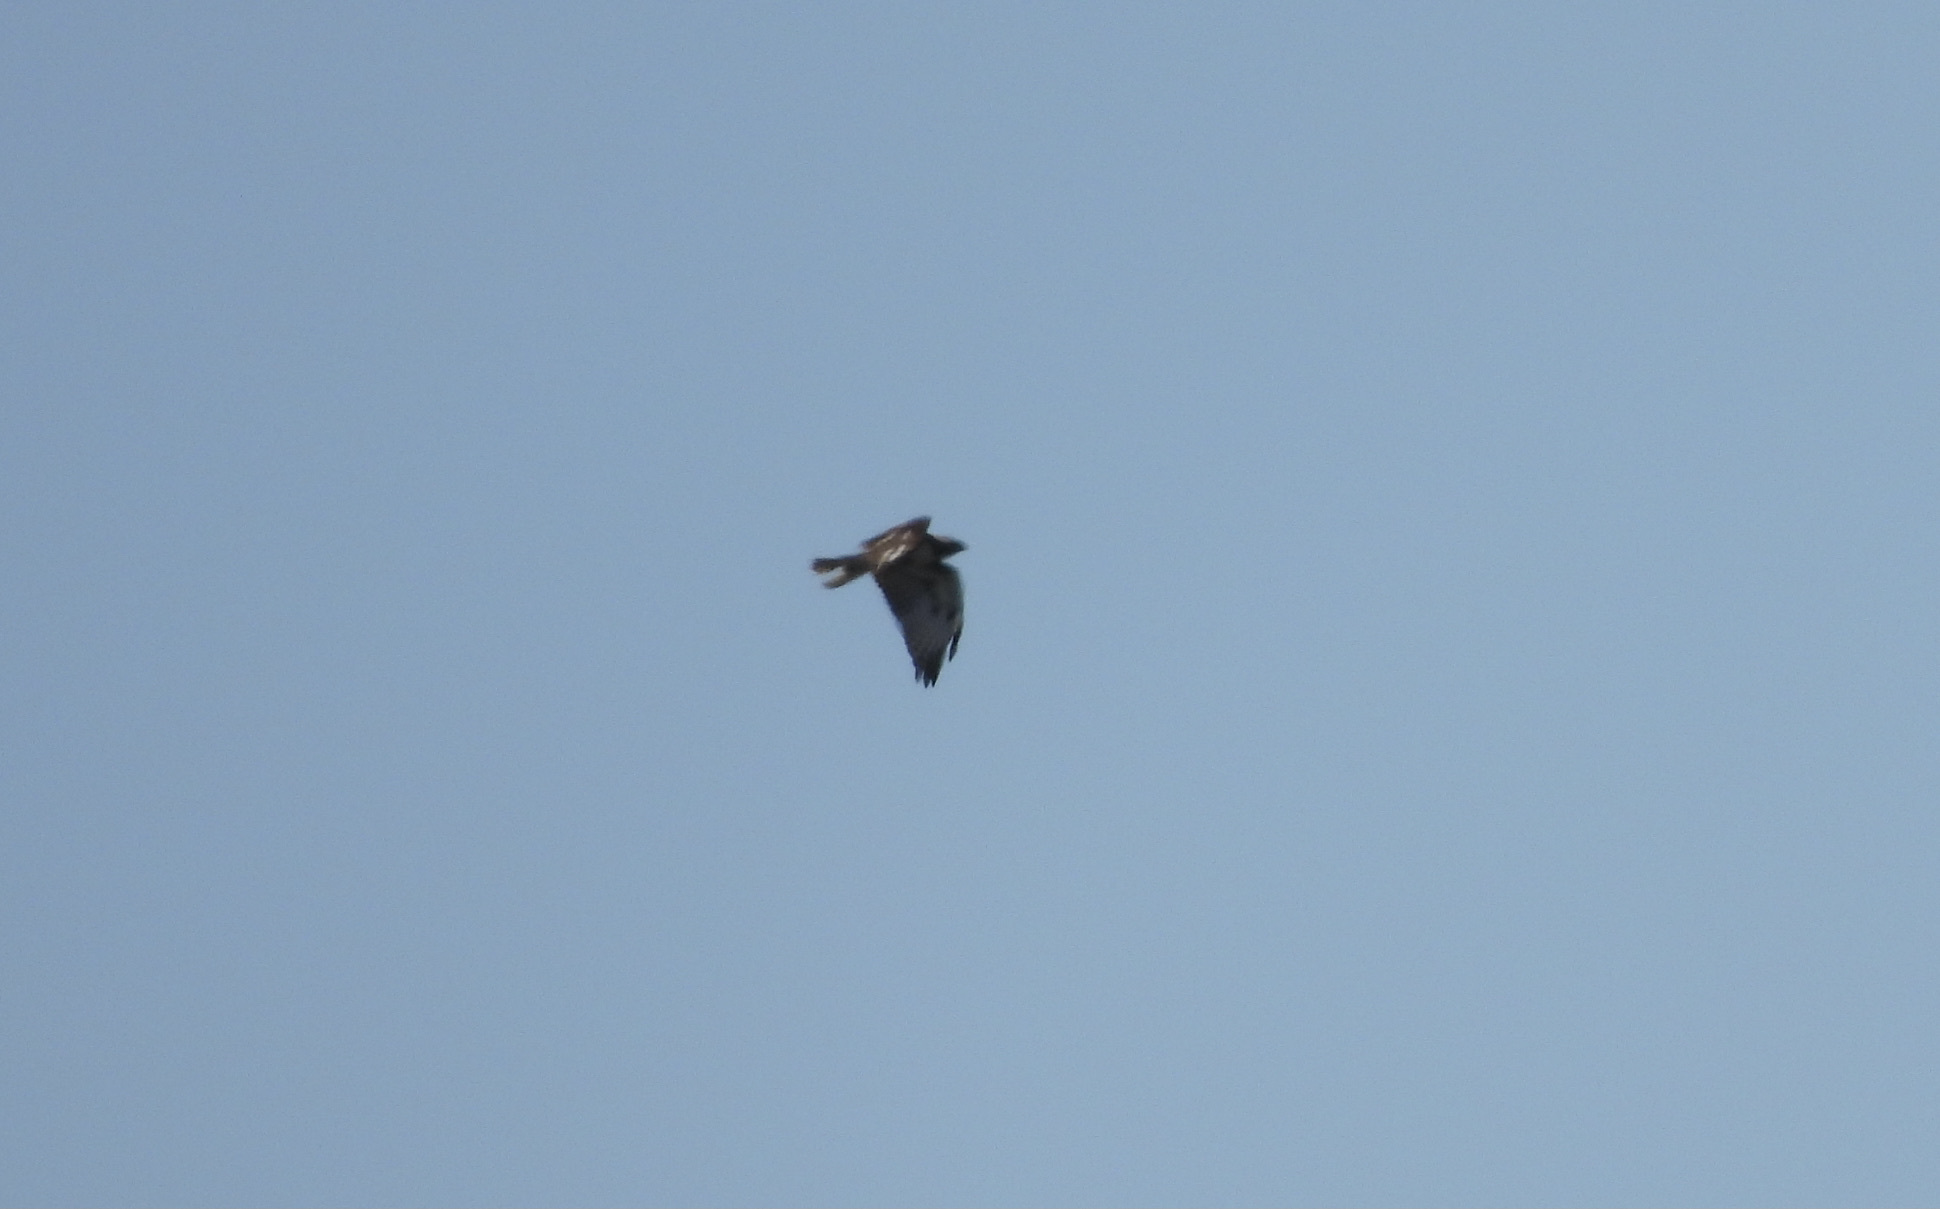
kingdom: Animalia
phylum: Chordata
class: Aves
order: Accipitriformes
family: Accipitridae
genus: Buteo
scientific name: Buteo jamaicensis
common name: Red-tailed hawk
